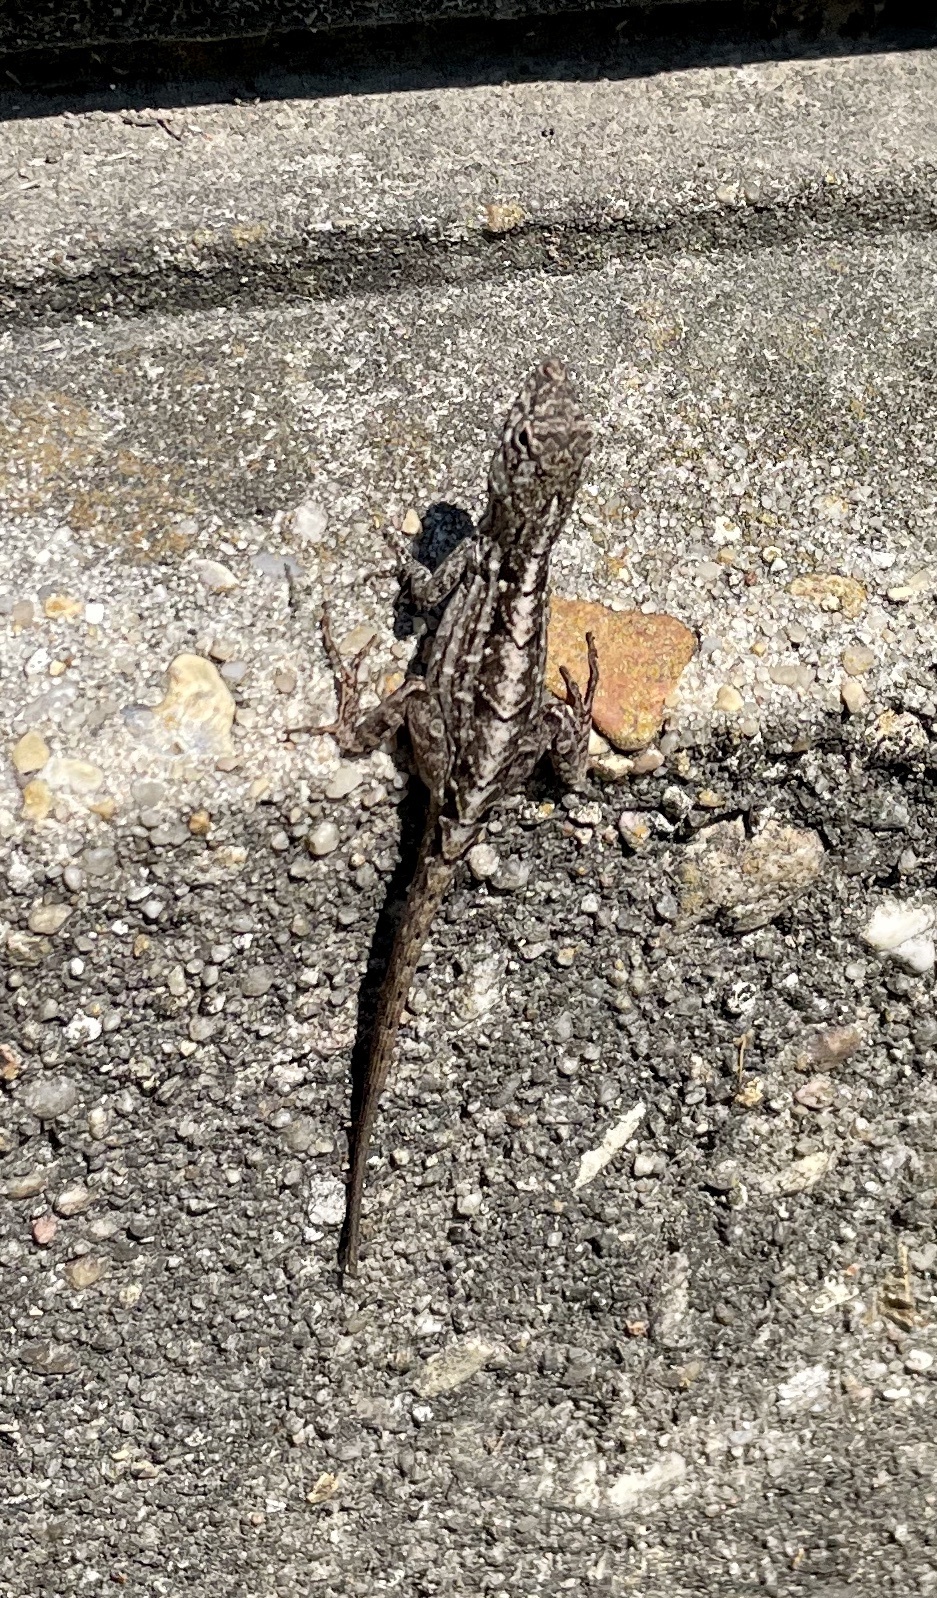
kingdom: Animalia
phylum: Chordata
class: Squamata
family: Dactyloidae
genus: Anolis
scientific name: Anolis sagrei
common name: Brown anole
